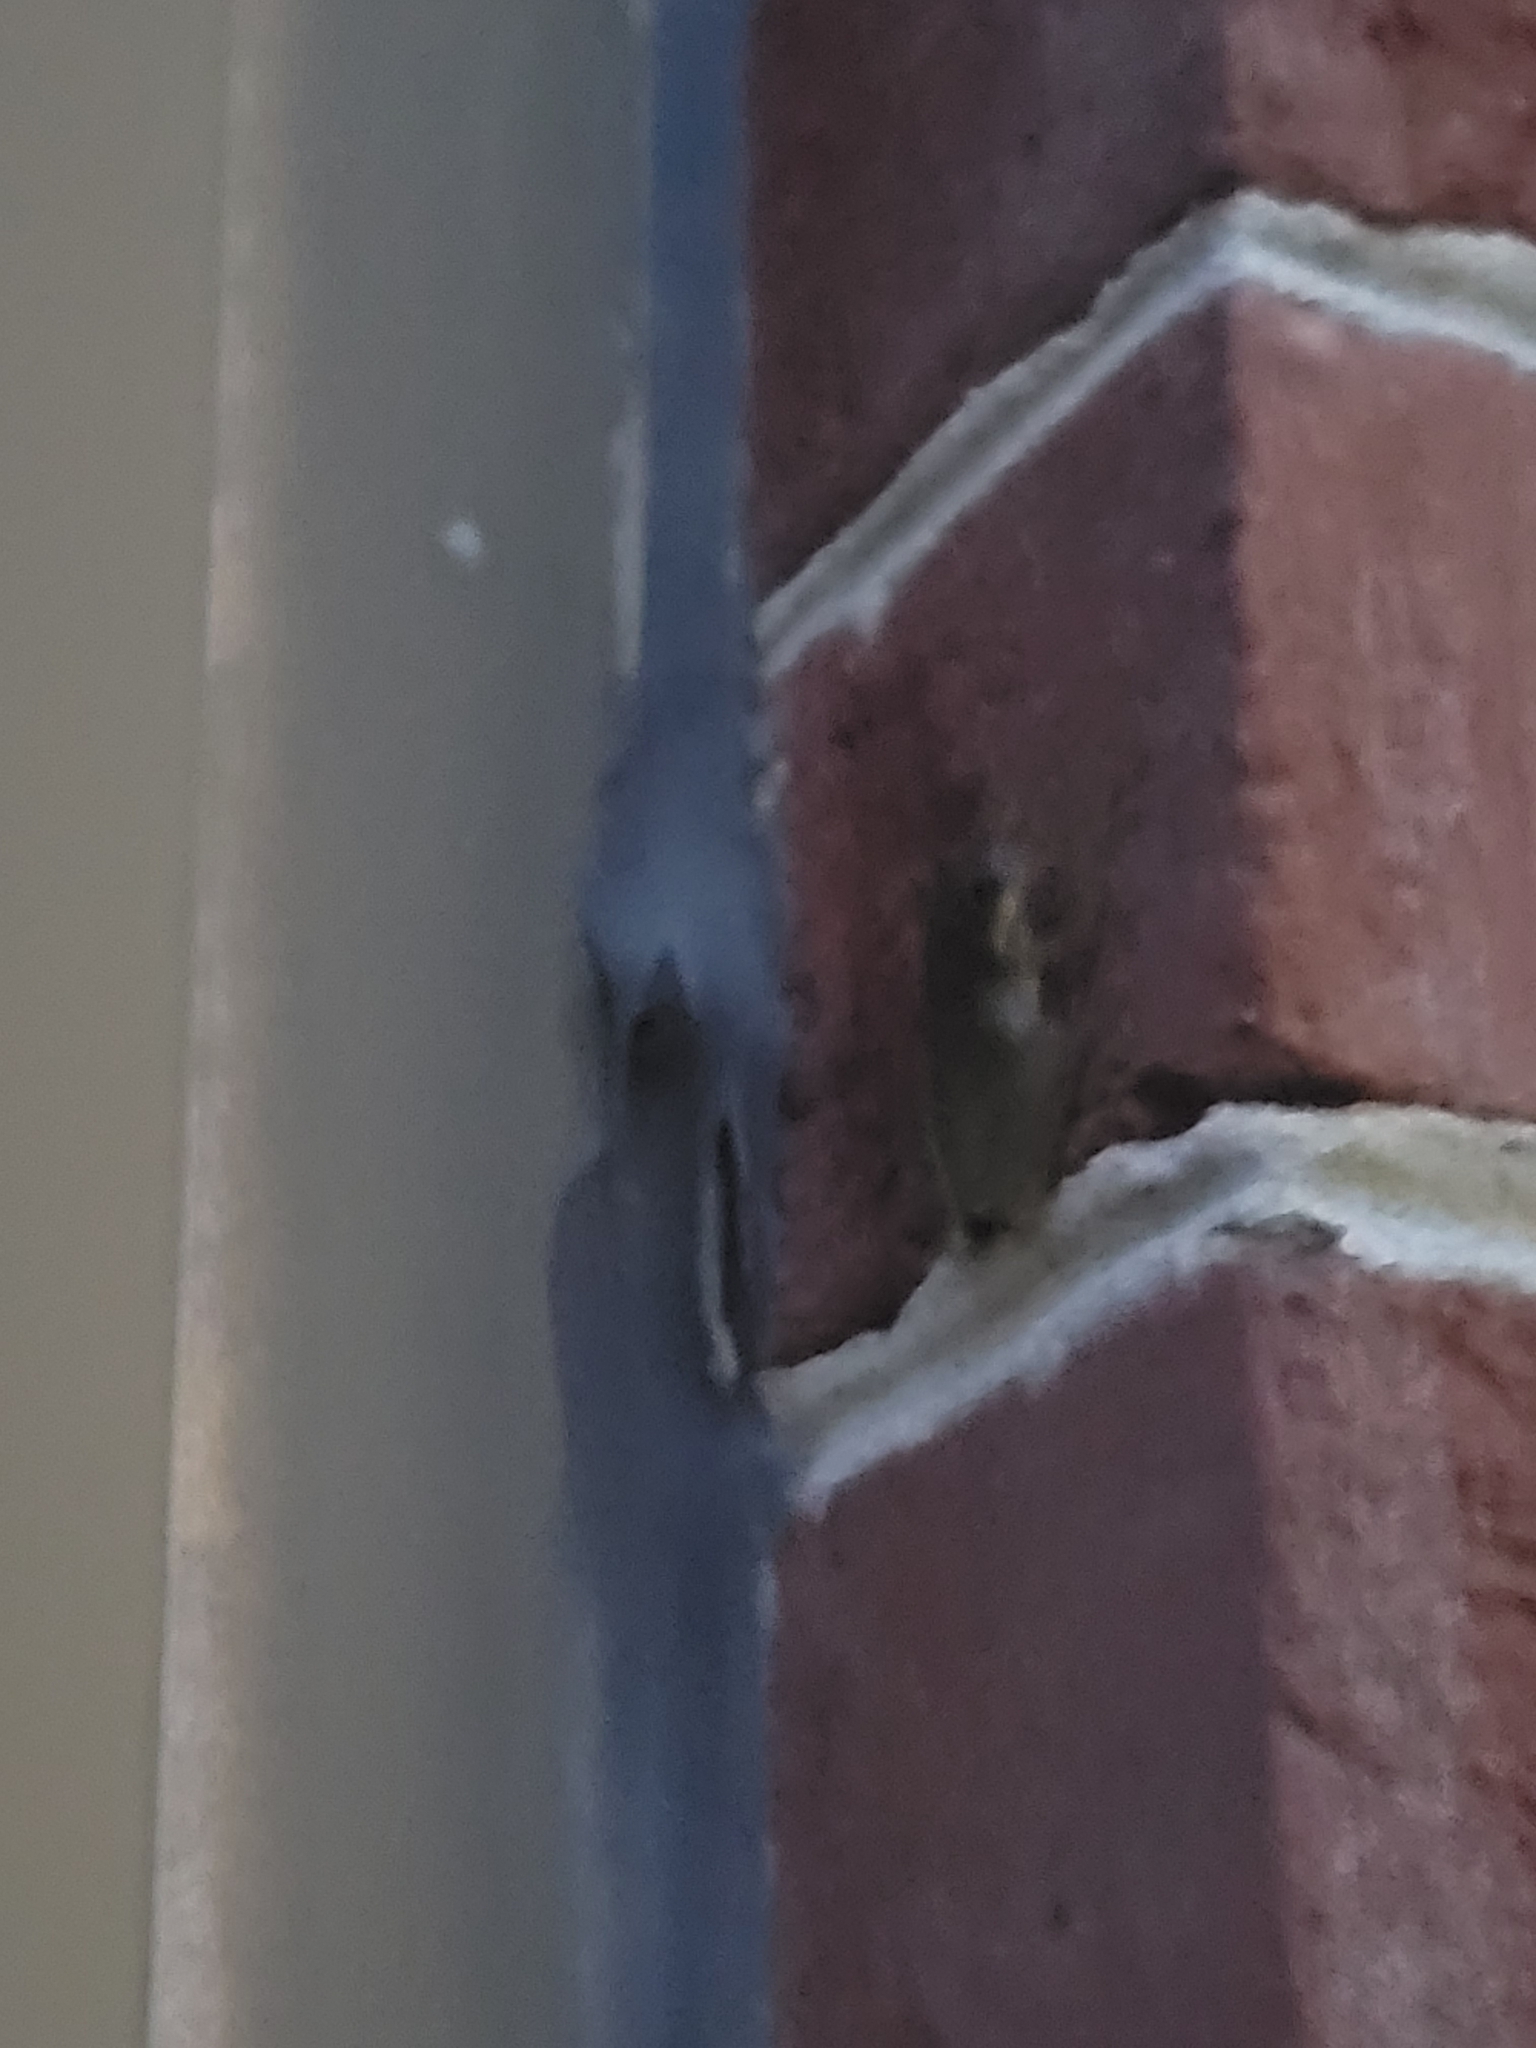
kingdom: Animalia
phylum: Chordata
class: Amphibia
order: Anura
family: Hylidae
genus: Dryophytes
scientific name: Dryophytes squirellus
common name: Squirrel treefrog
